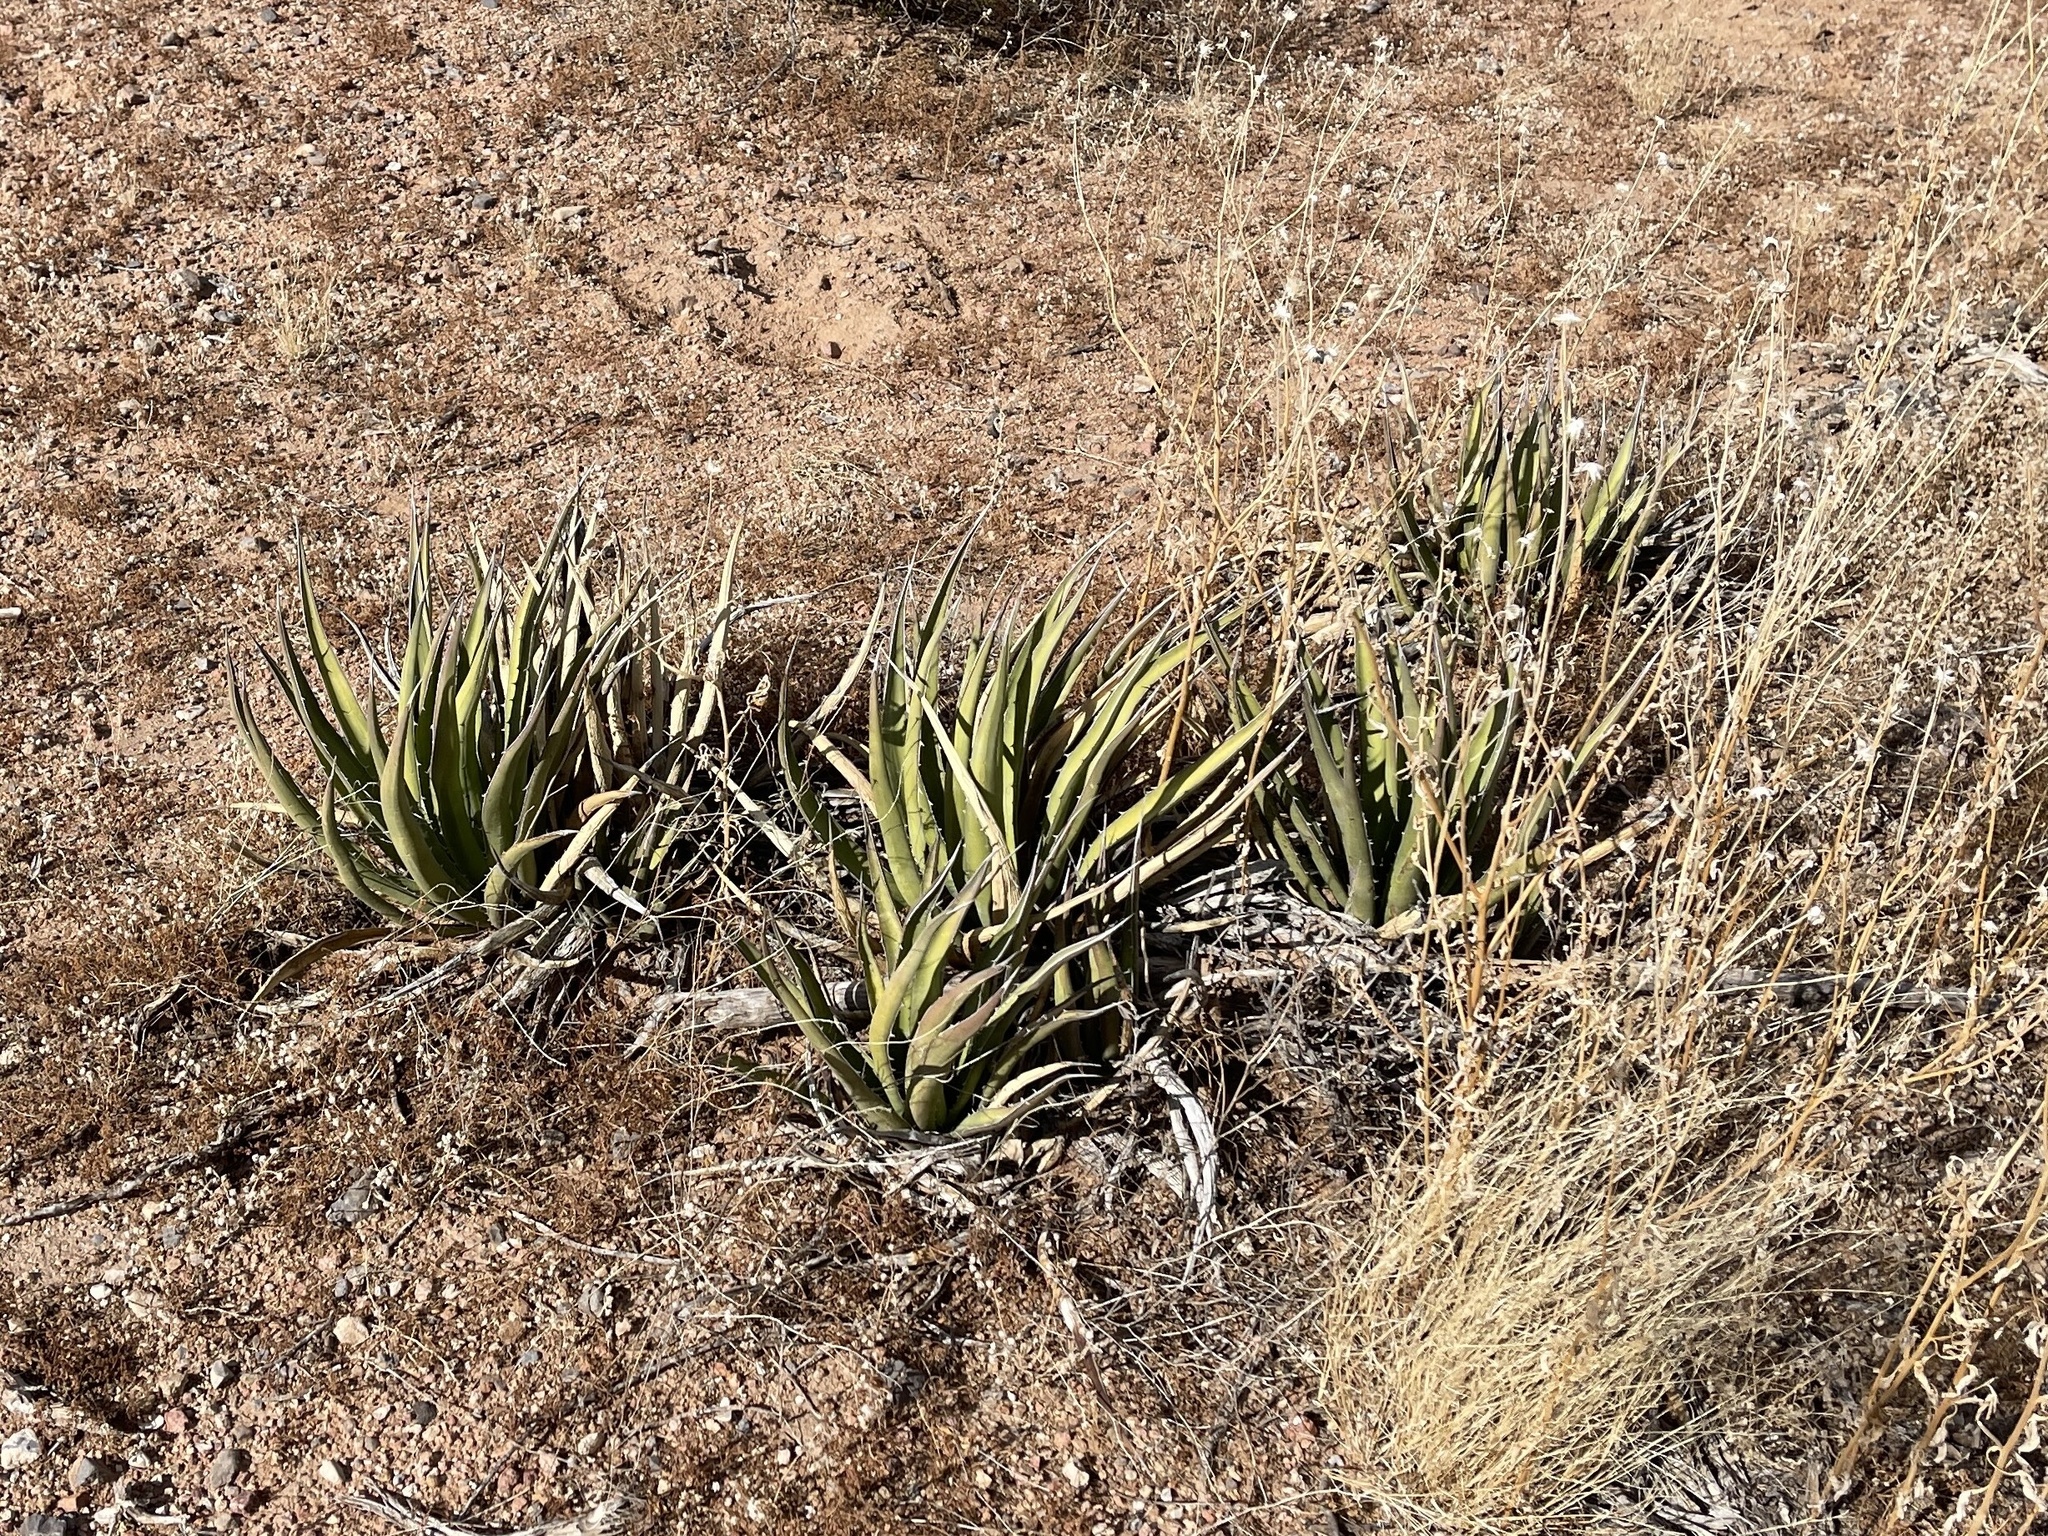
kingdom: Plantae
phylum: Tracheophyta
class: Liliopsida
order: Asparagales
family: Asparagaceae
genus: Agave
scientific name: Agave lechuguilla
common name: Lecheguilla agave
